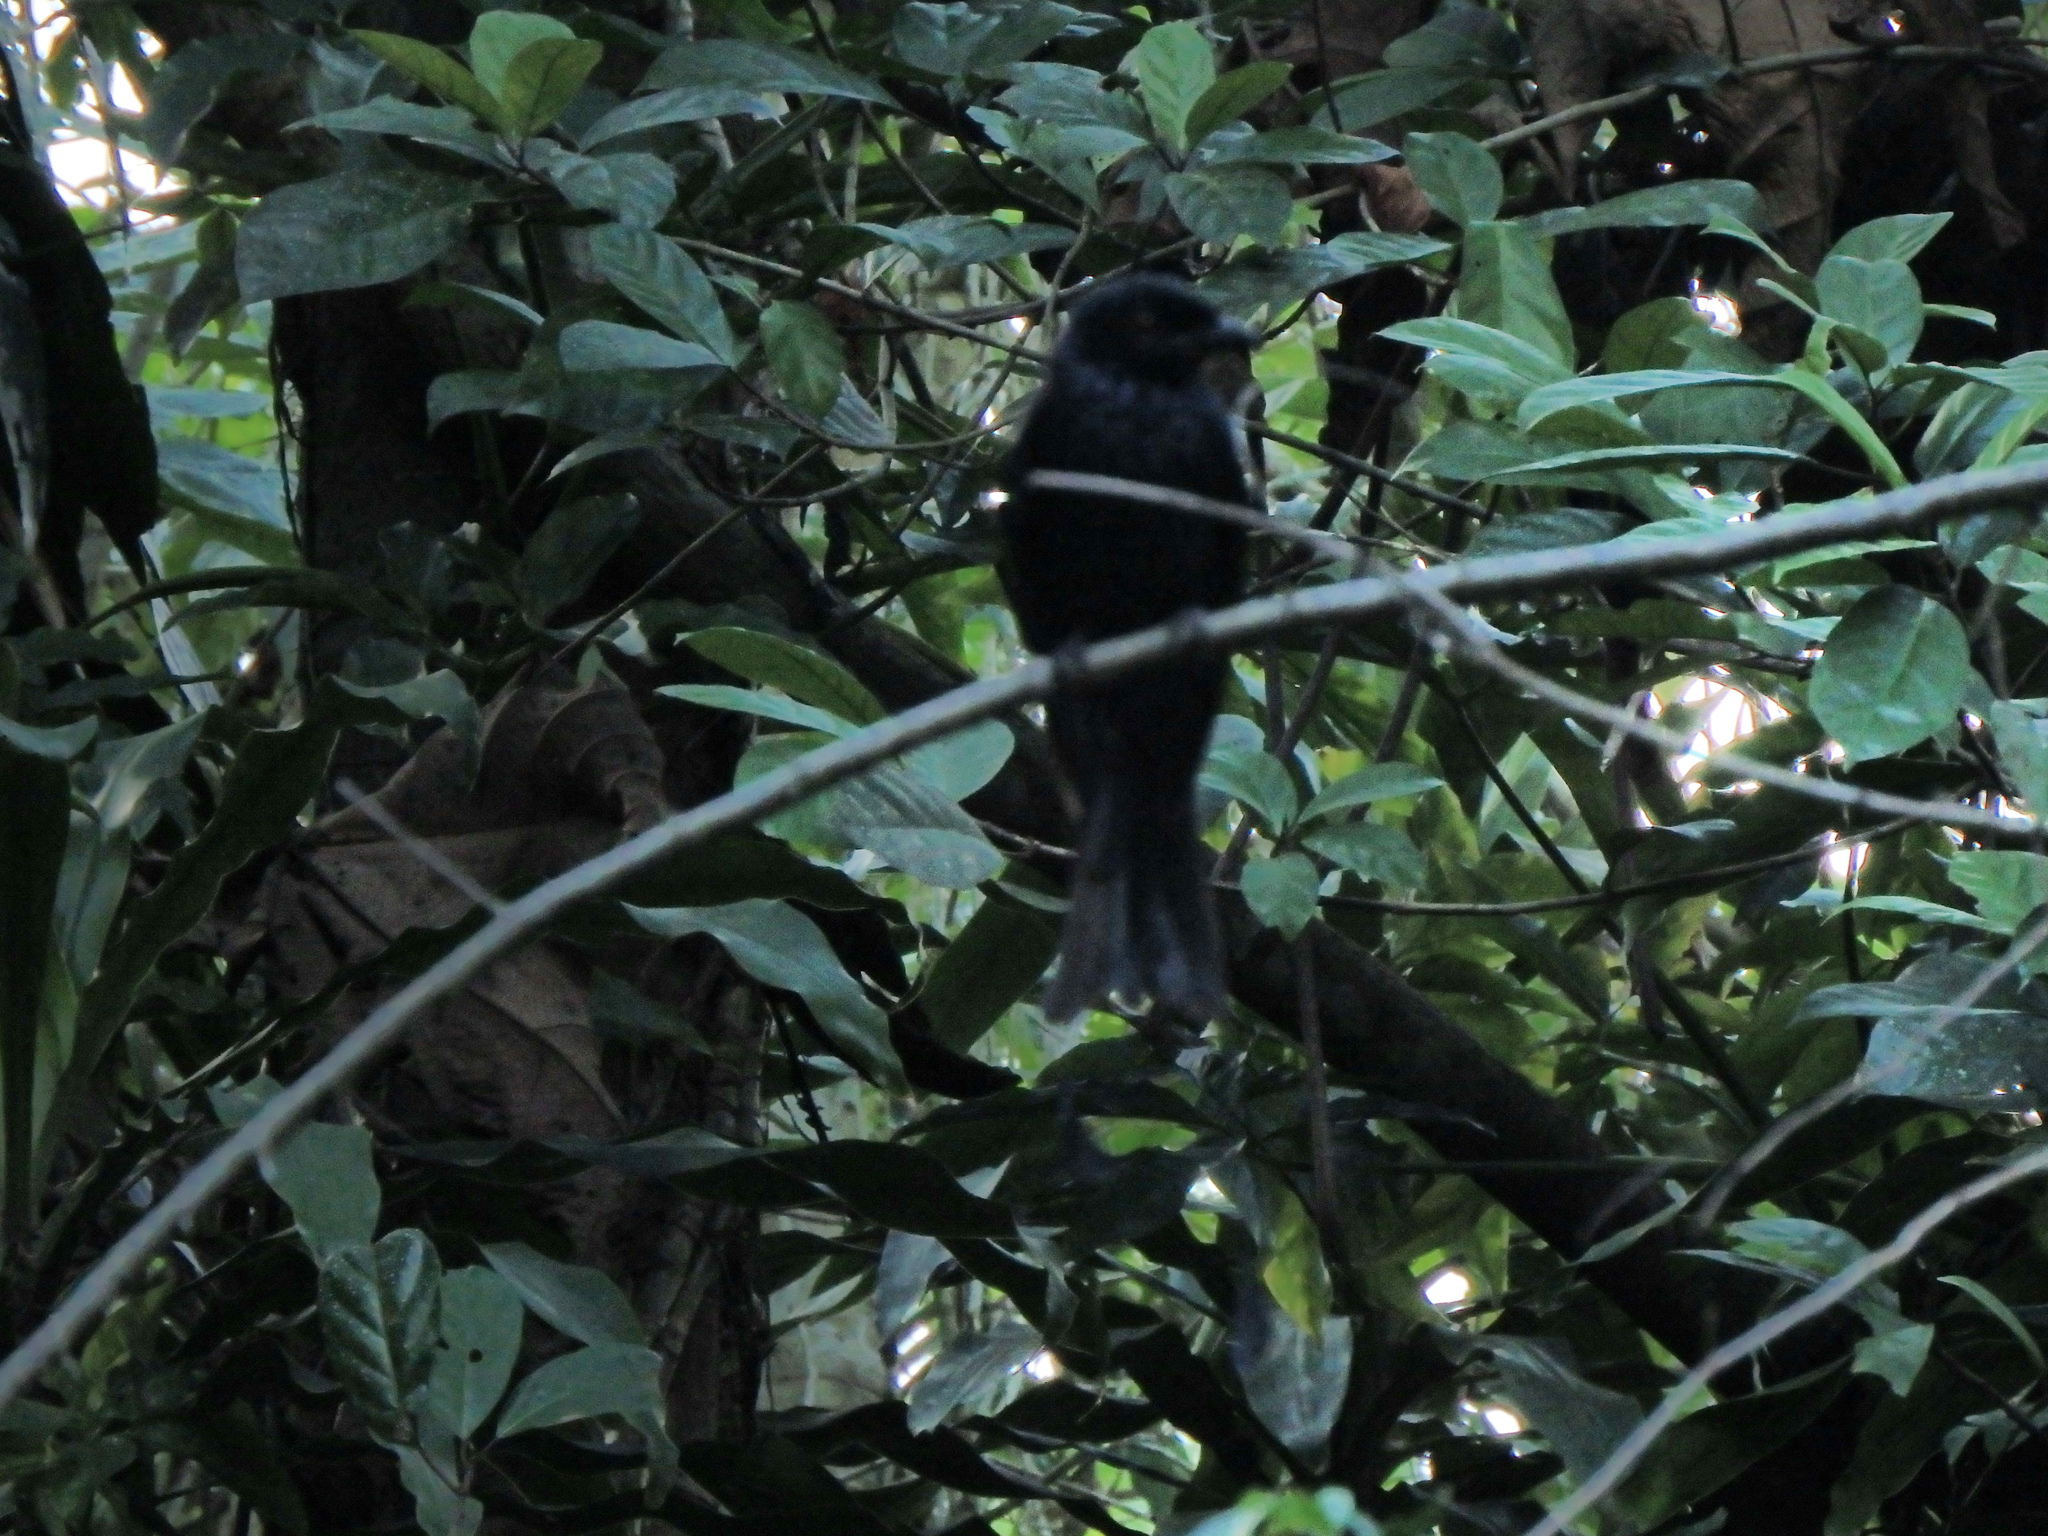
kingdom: Animalia
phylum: Chordata
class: Aves
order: Passeriformes
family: Dicruridae
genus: Dicrurus
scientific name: Dicrurus paradiseus
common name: Greater racket-tailed drongo
